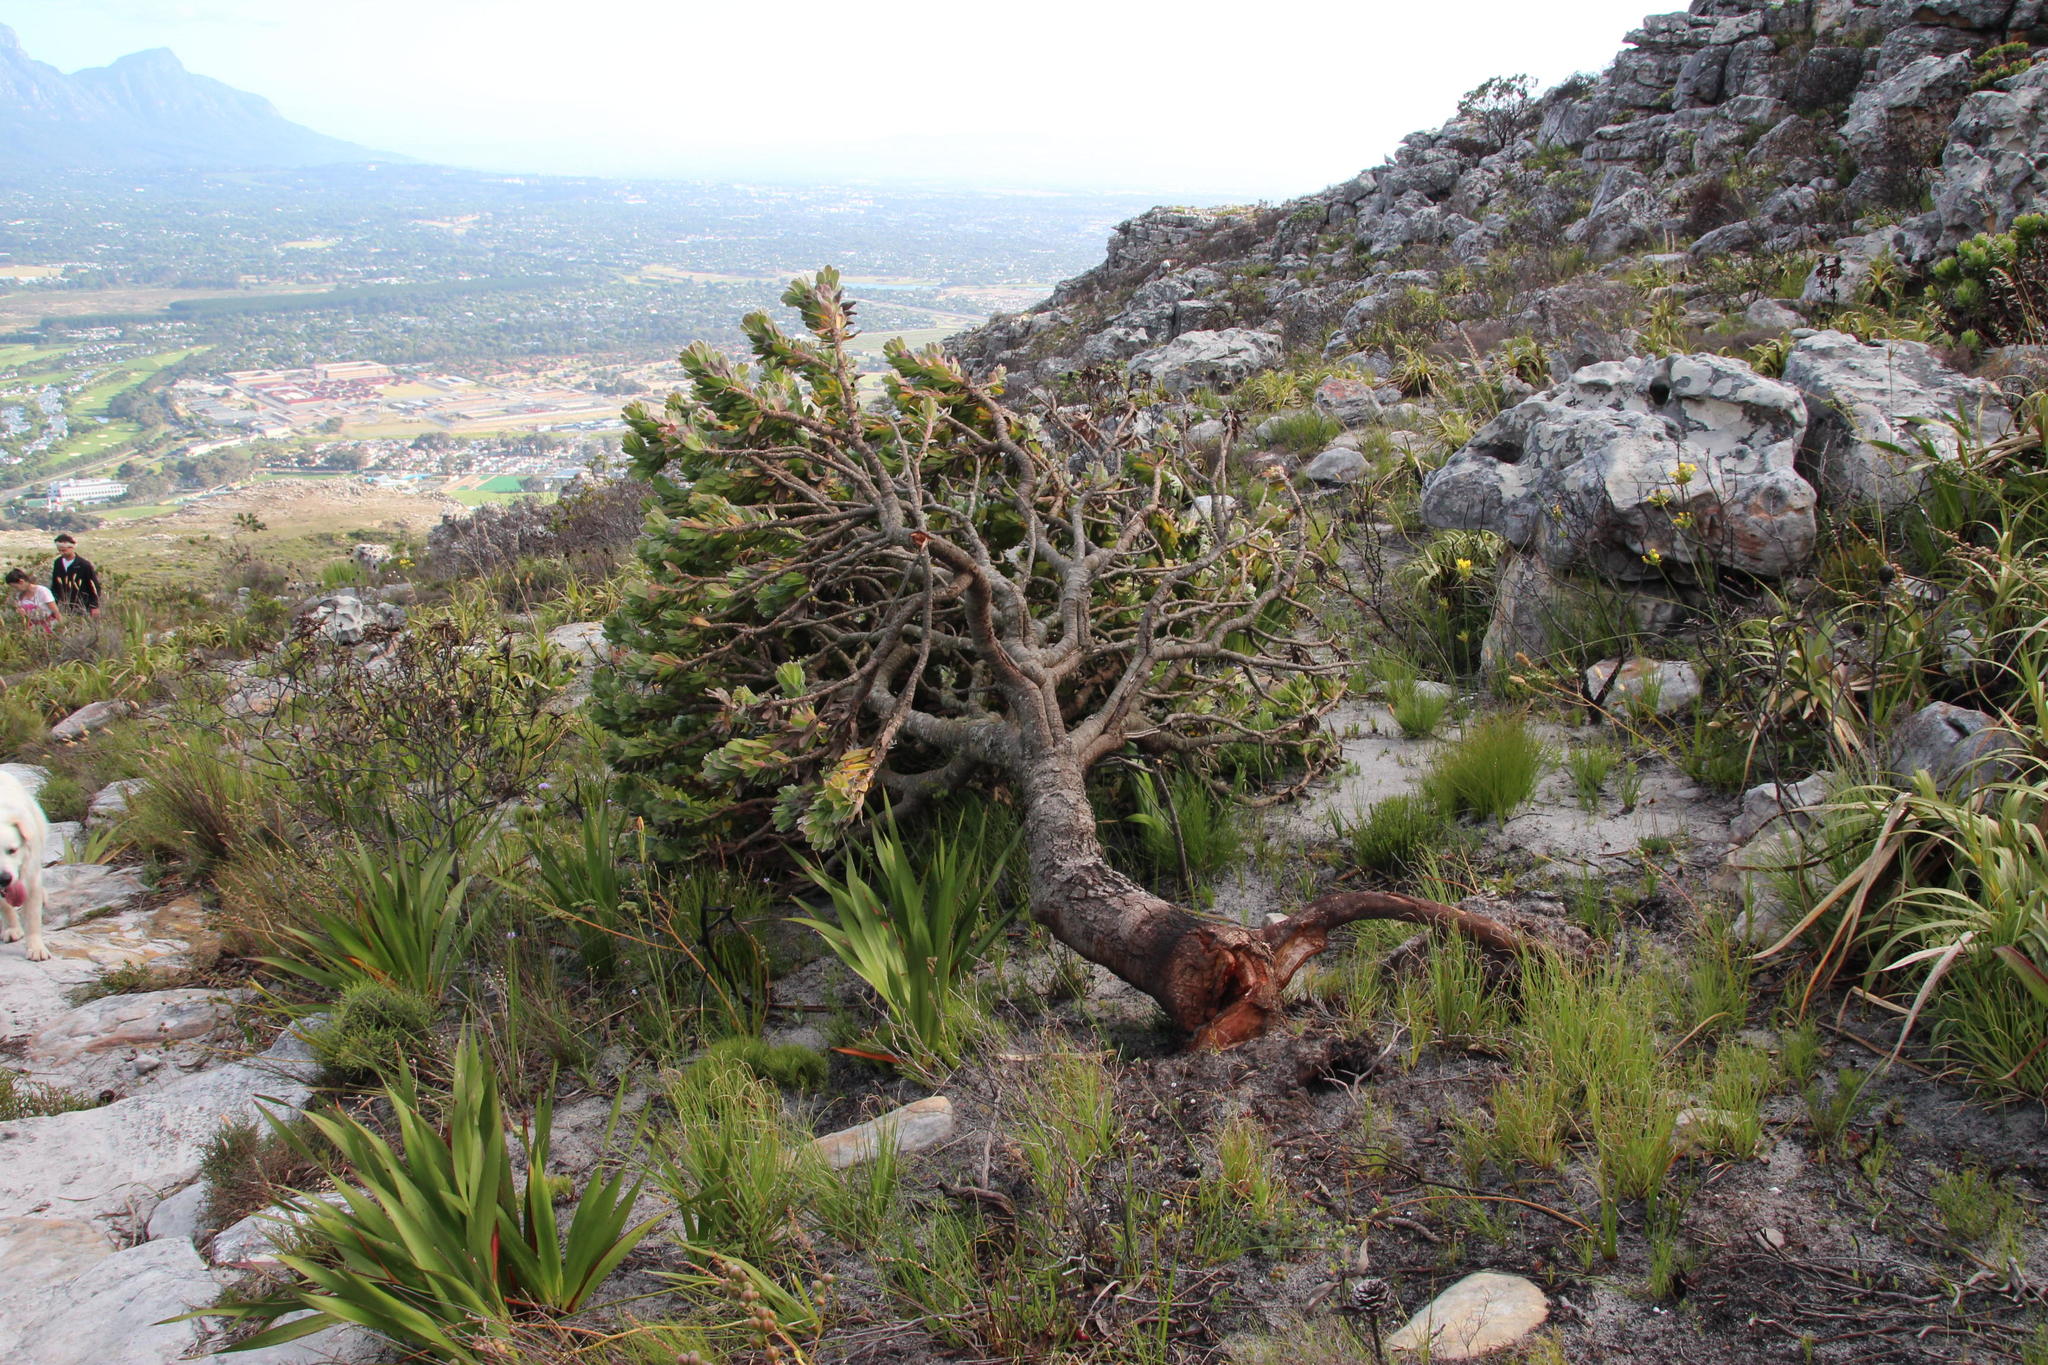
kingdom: Plantae
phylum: Tracheophyta
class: Magnoliopsida
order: Proteales
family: Proteaceae
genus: Mimetes
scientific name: Mimetes fimbriifolius
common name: Fringed bottlebrush
